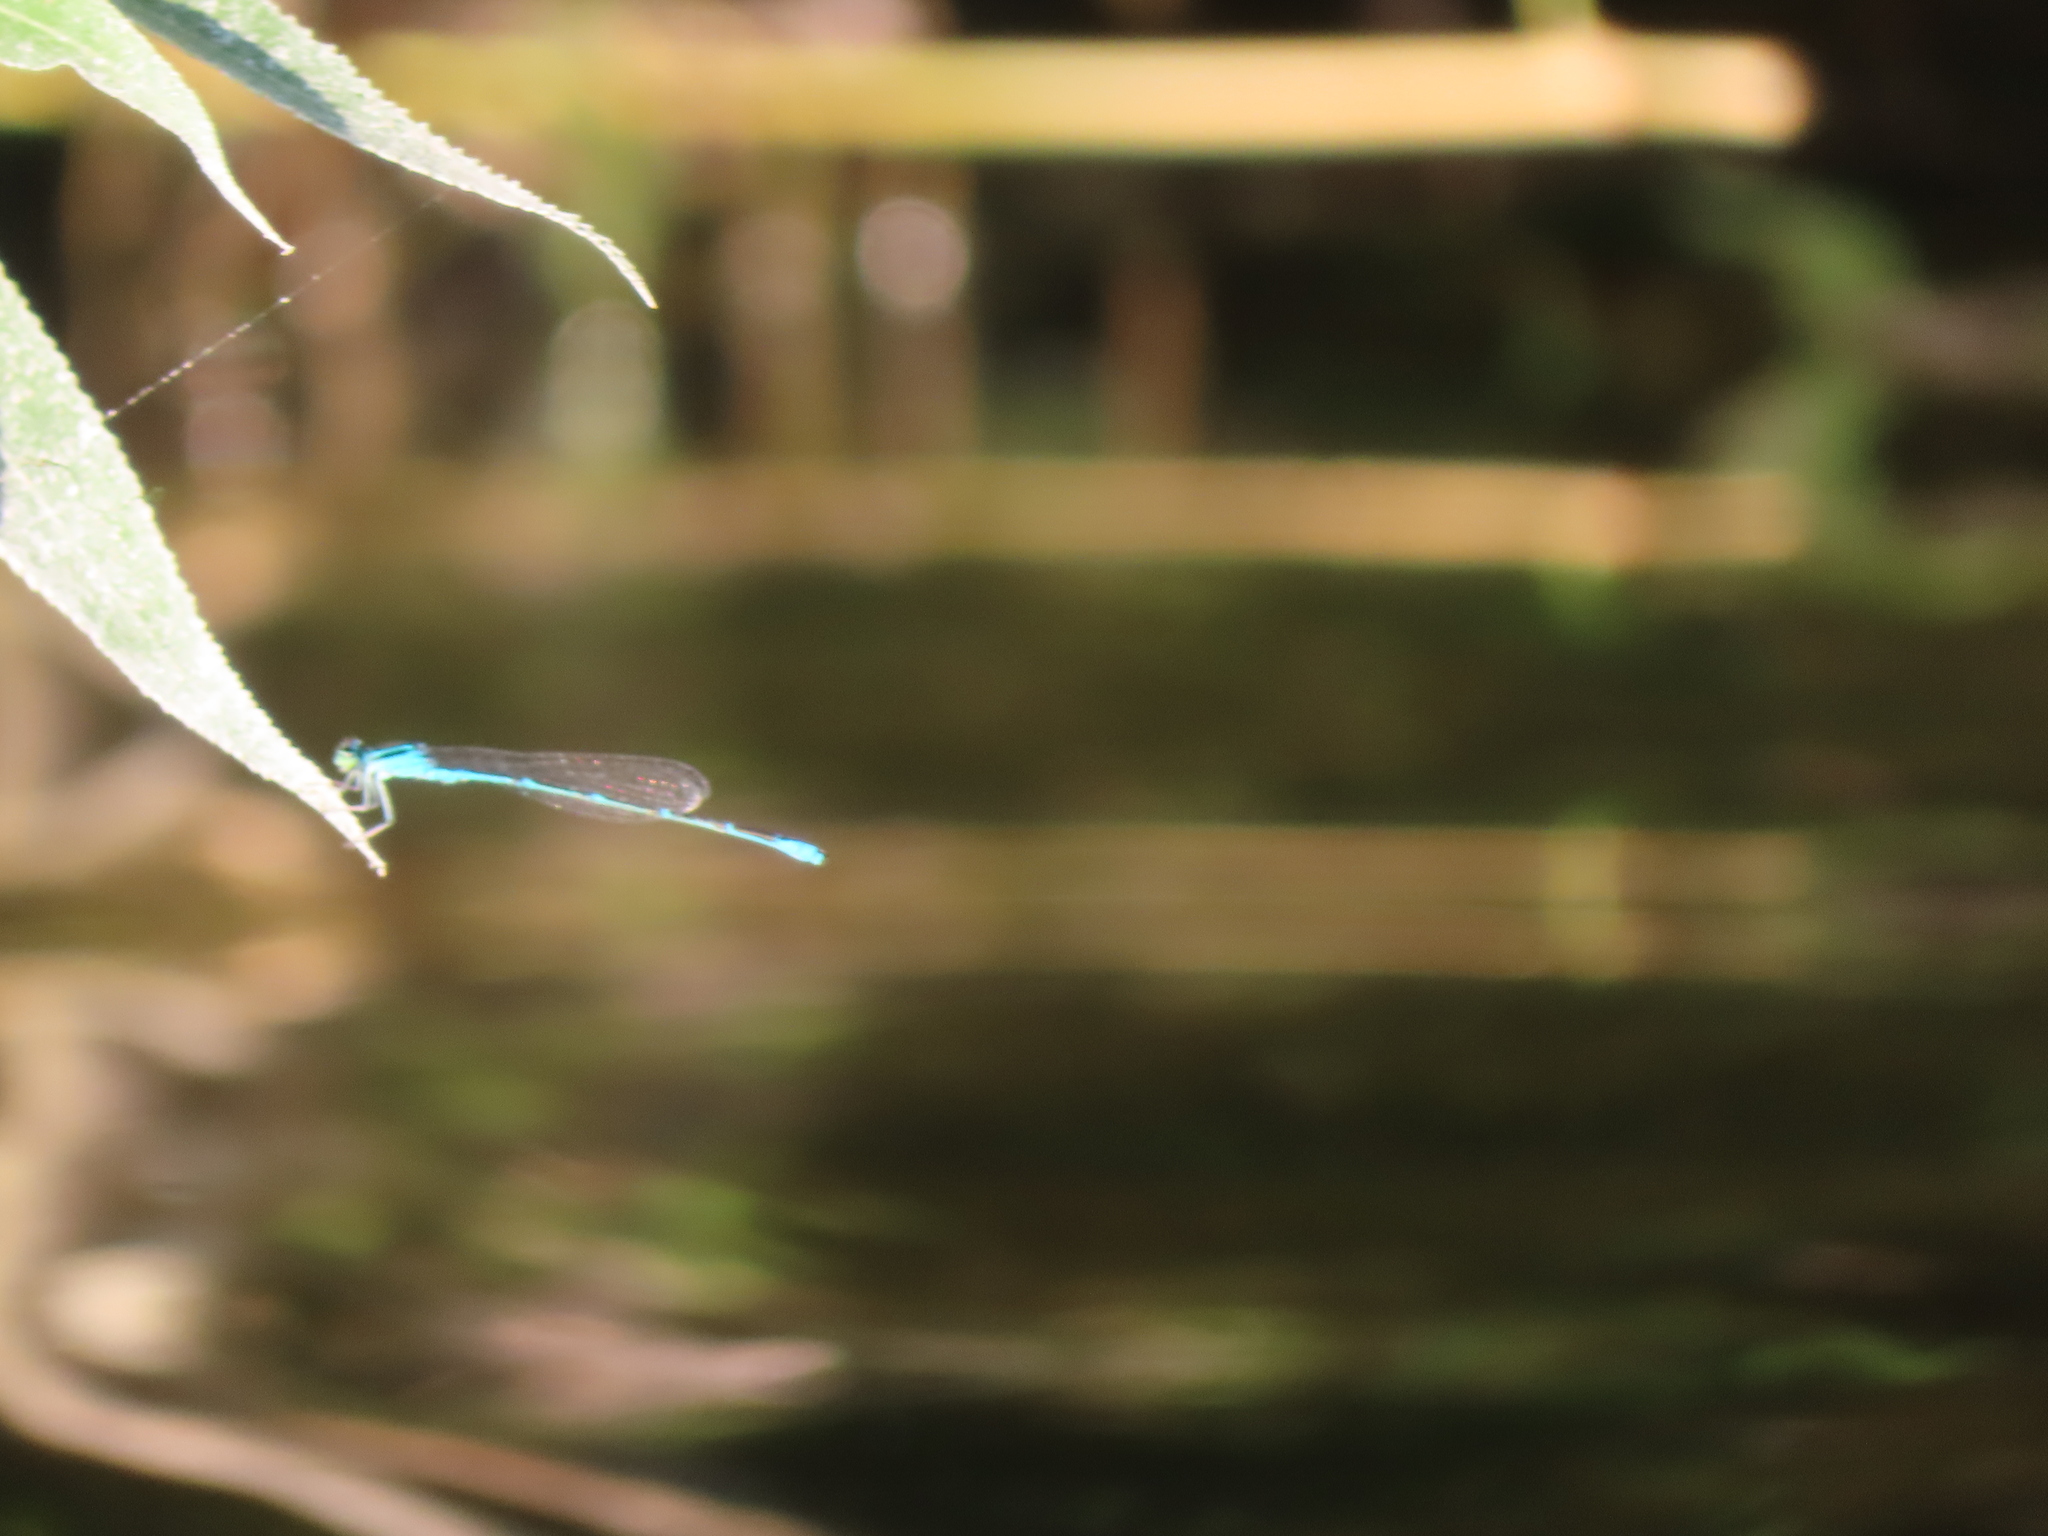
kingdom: Animalia
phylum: Arthropoda
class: Insecta
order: Odonata
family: Coenagrionidae
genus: Enallagma
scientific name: Enallagma exsulans
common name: Stream bluet
